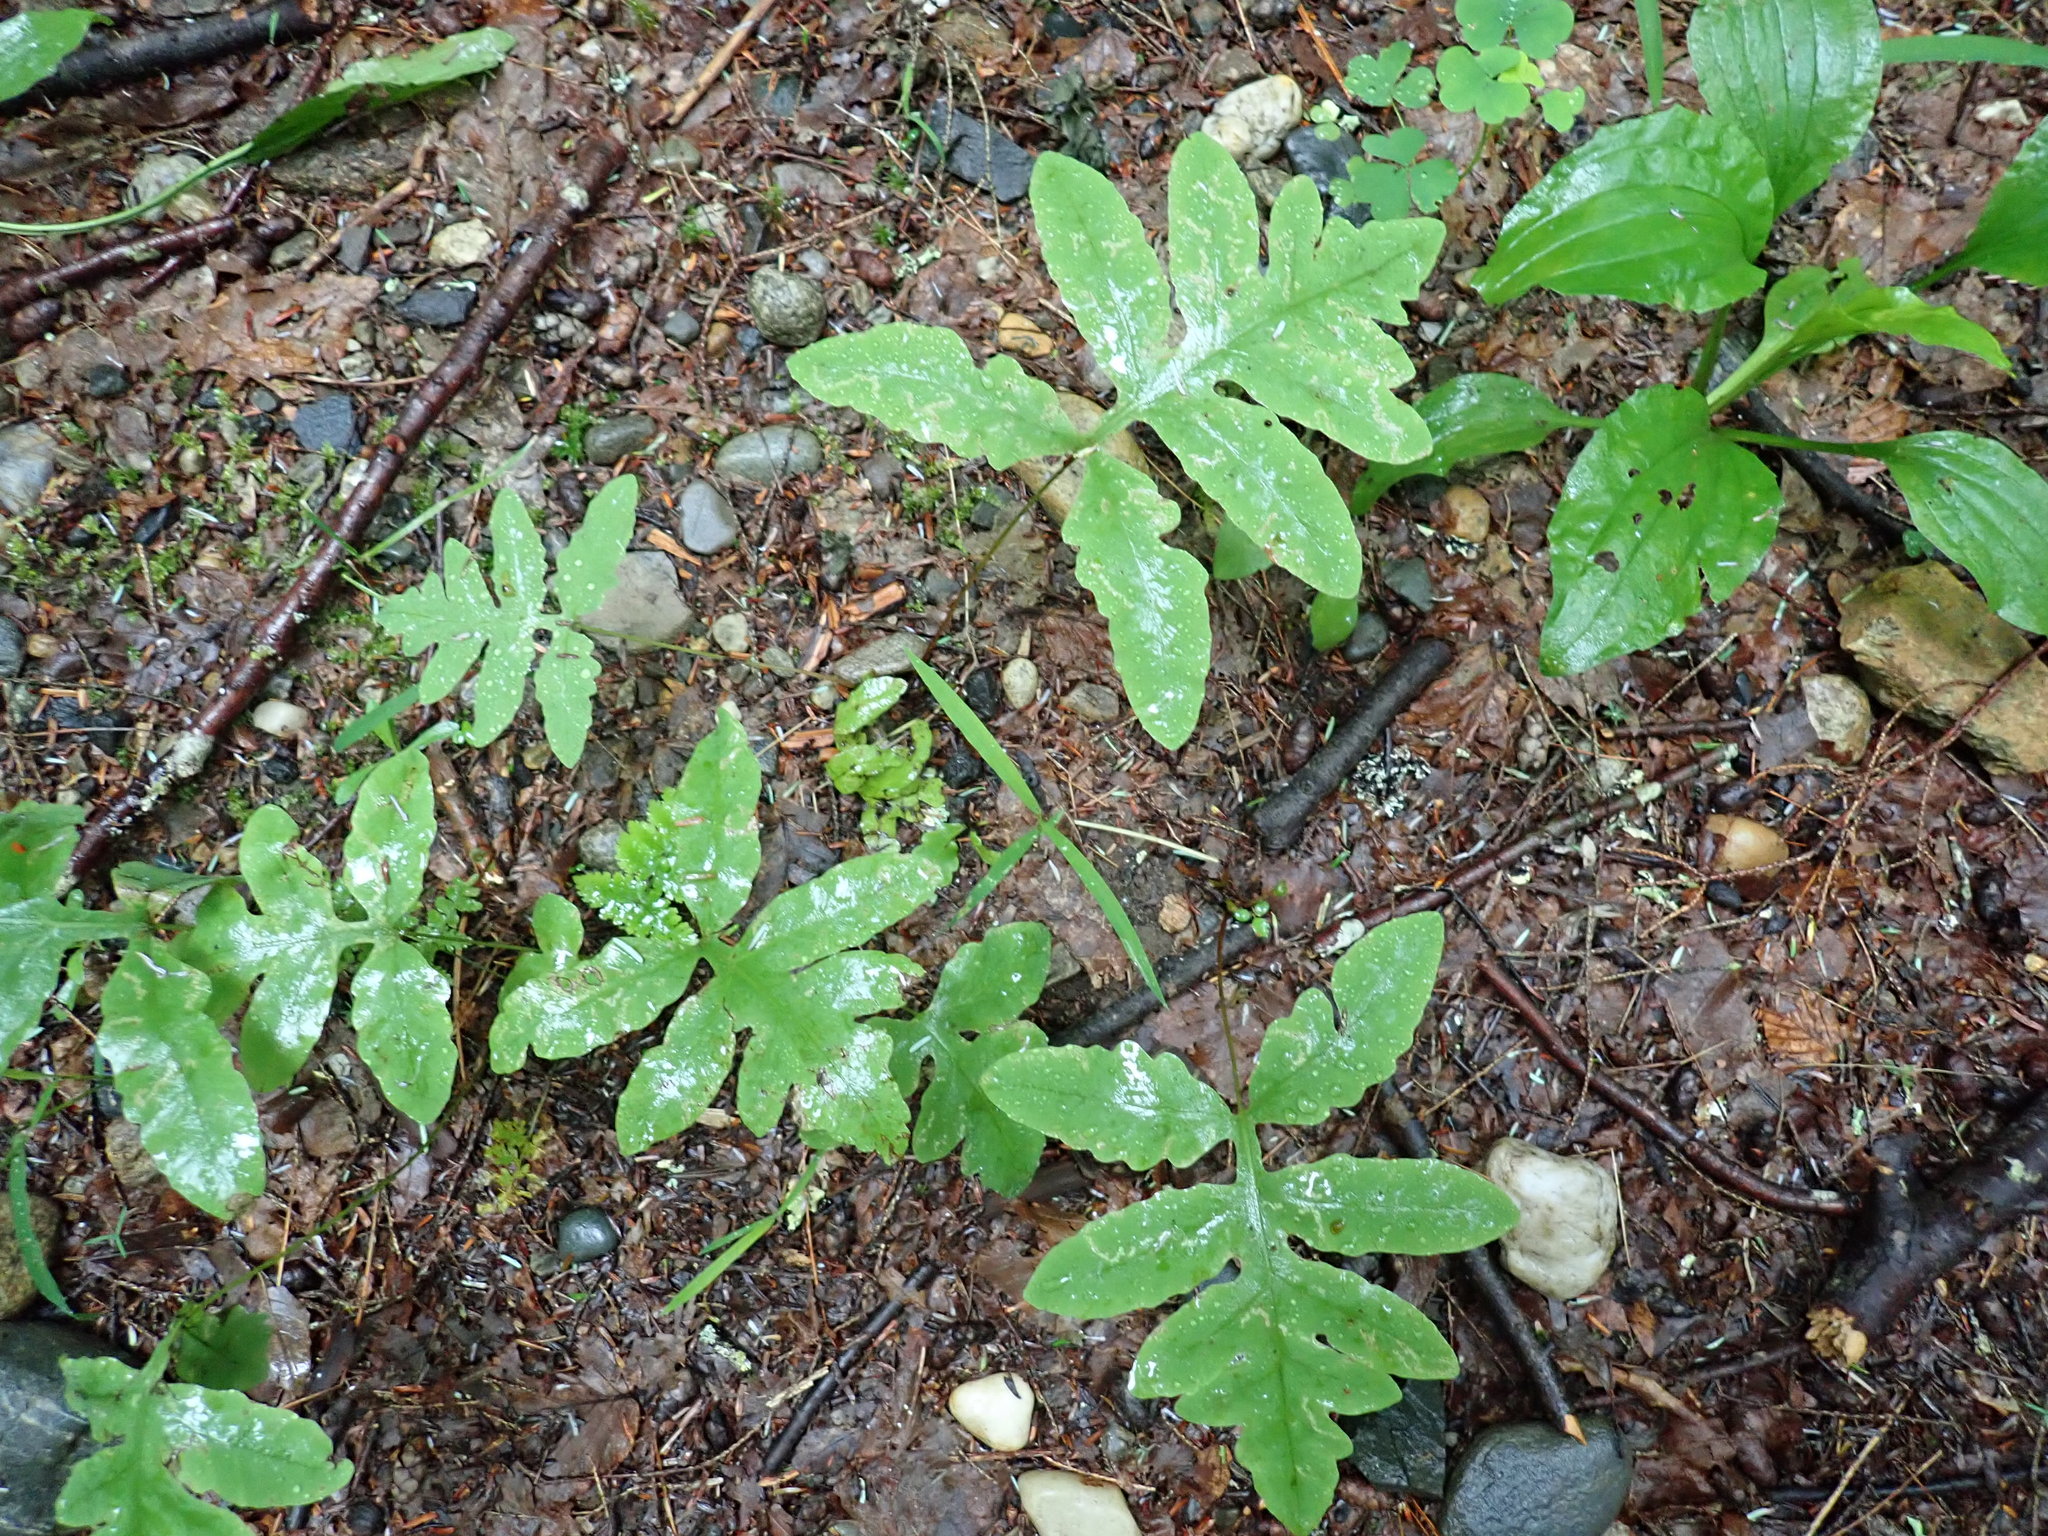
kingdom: Plantae
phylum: Tracheophyta
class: Polypodiopsida
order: Polypodiales
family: Onocleaceae
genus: Onoclea
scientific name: Onoclea sensibilis
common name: Sensitive fern
